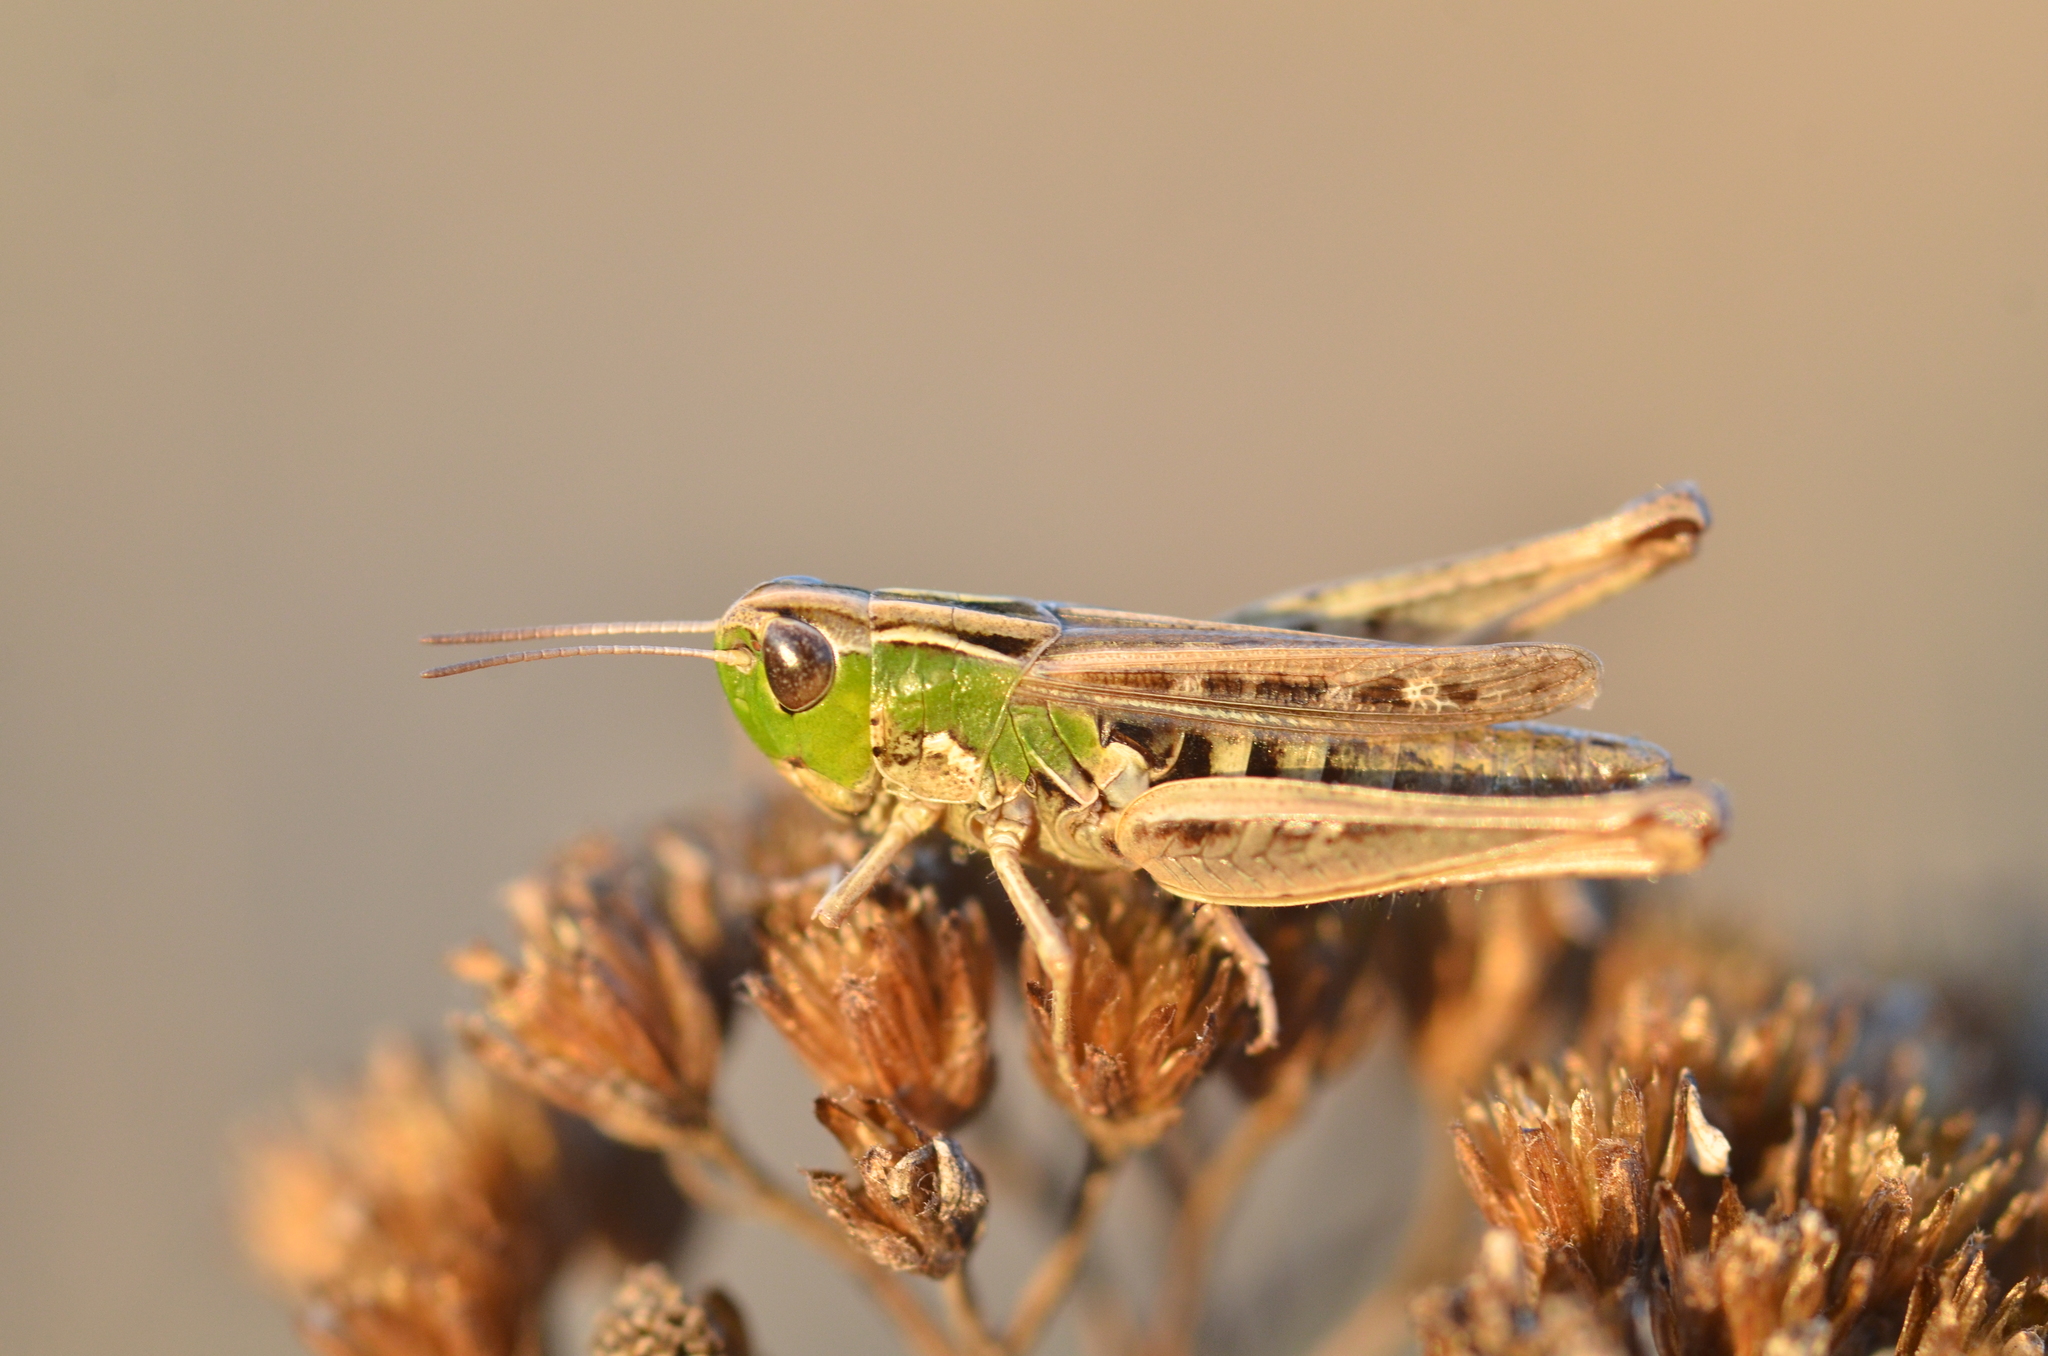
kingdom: Animalia
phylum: Arthropoda
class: Insecta
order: Orthoptera
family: Acrididae
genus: Stenobothrus
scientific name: Stenobothrus stigmaticus
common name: Lesser mottled grasshopper
